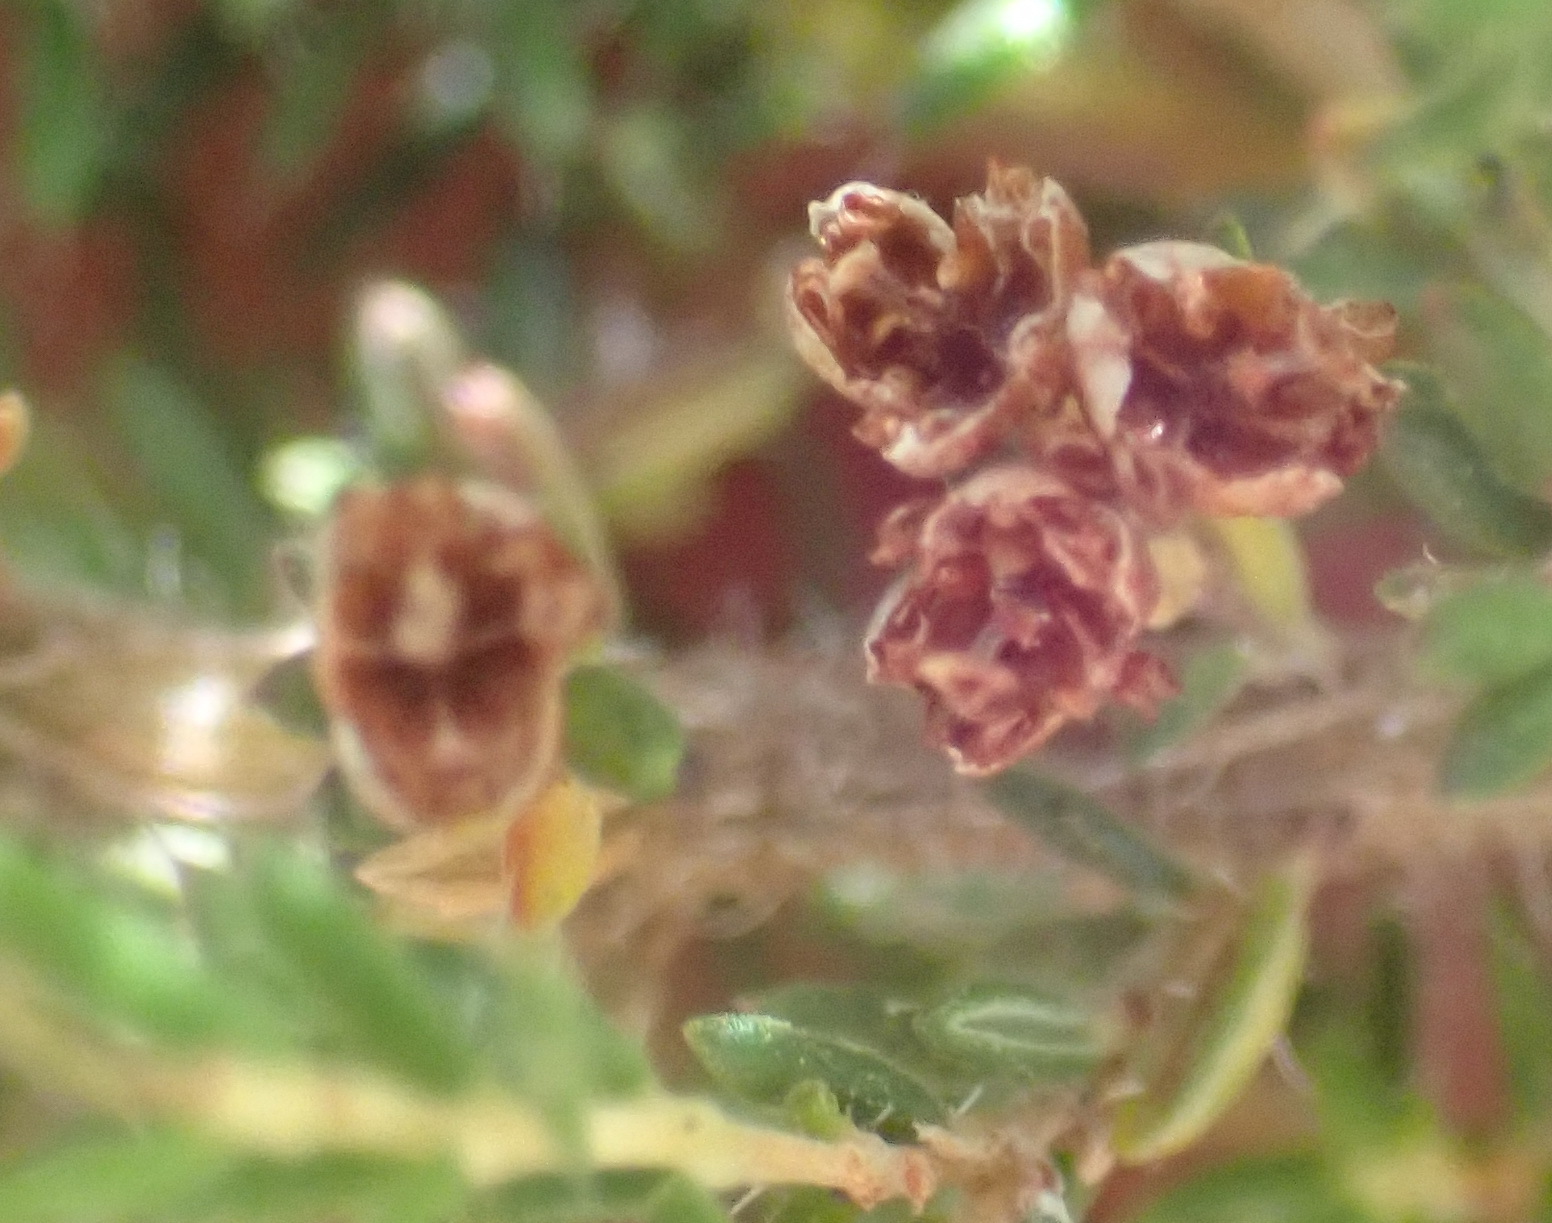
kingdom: Plantae
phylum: Tracheophyta
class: Magnoliopsida
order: Ericales
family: Ericaceae
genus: Erica
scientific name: Erica leucopelta
